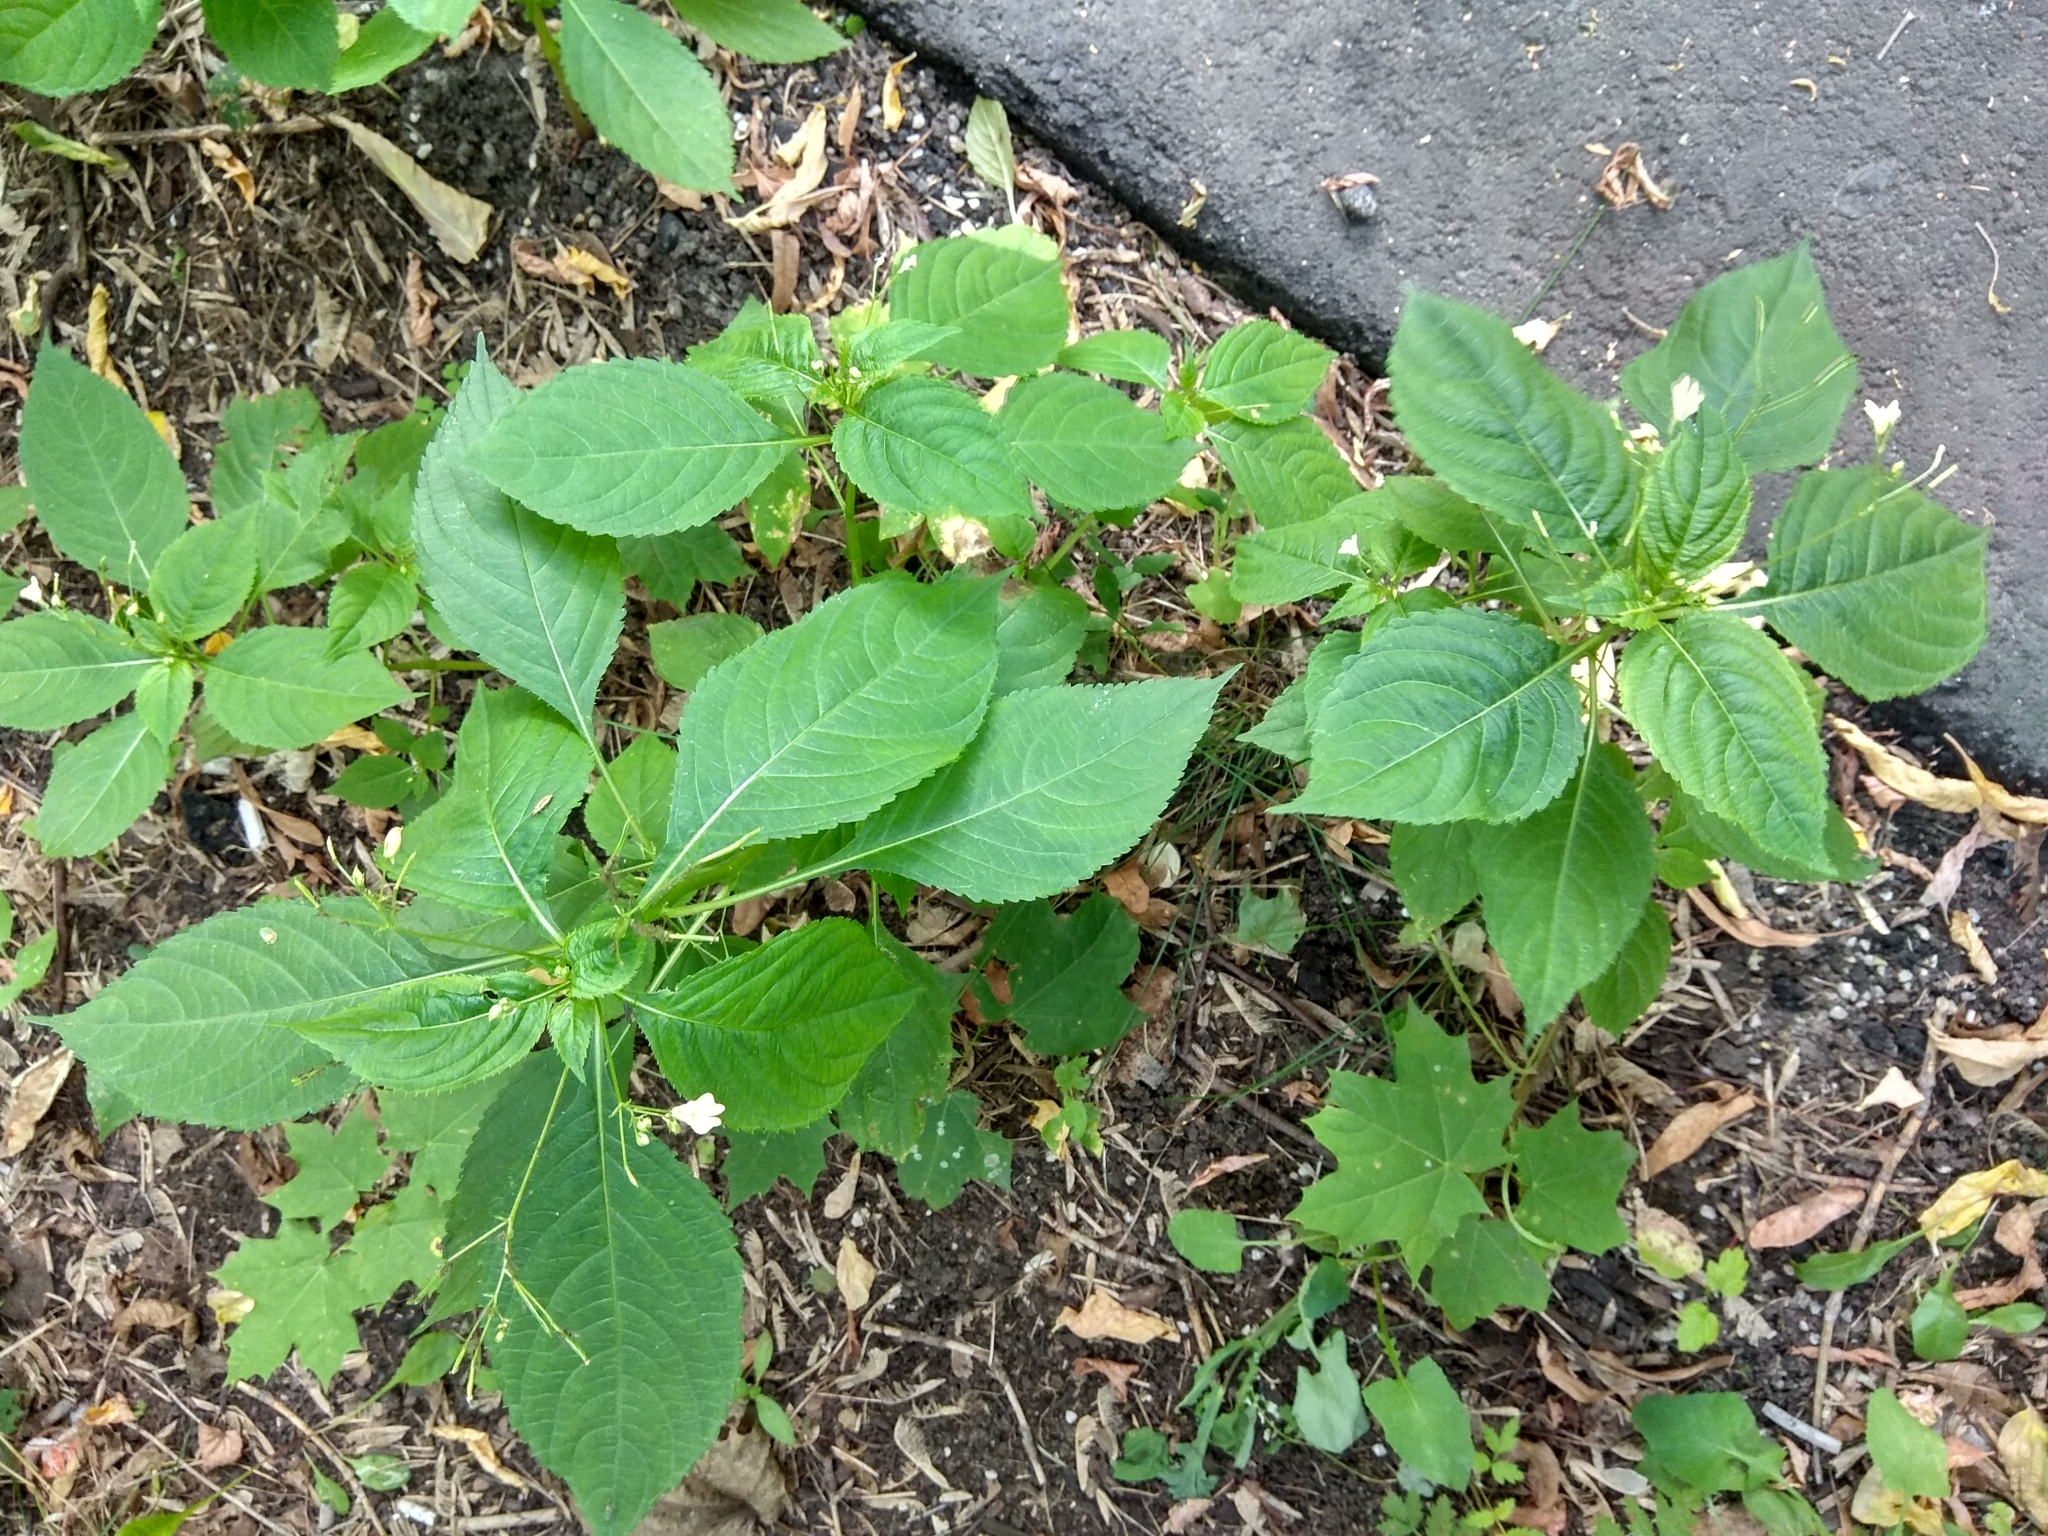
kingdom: Plantae
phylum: Tracheophyta
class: Magnoliopsida
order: Ericales
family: Balsaminaceae
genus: Impatiens
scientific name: Impatiens parviflora
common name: Small balsam
